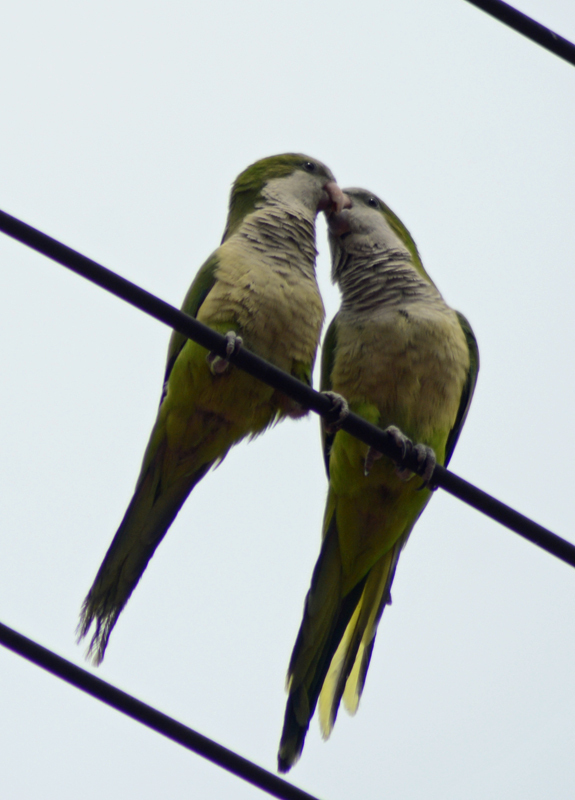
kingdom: Animalia
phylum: Chordata
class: Aves
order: Psittaciformes
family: Psittacidae
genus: Myiopsitta
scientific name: Myiopsitta monachus
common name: Monk parakeet
